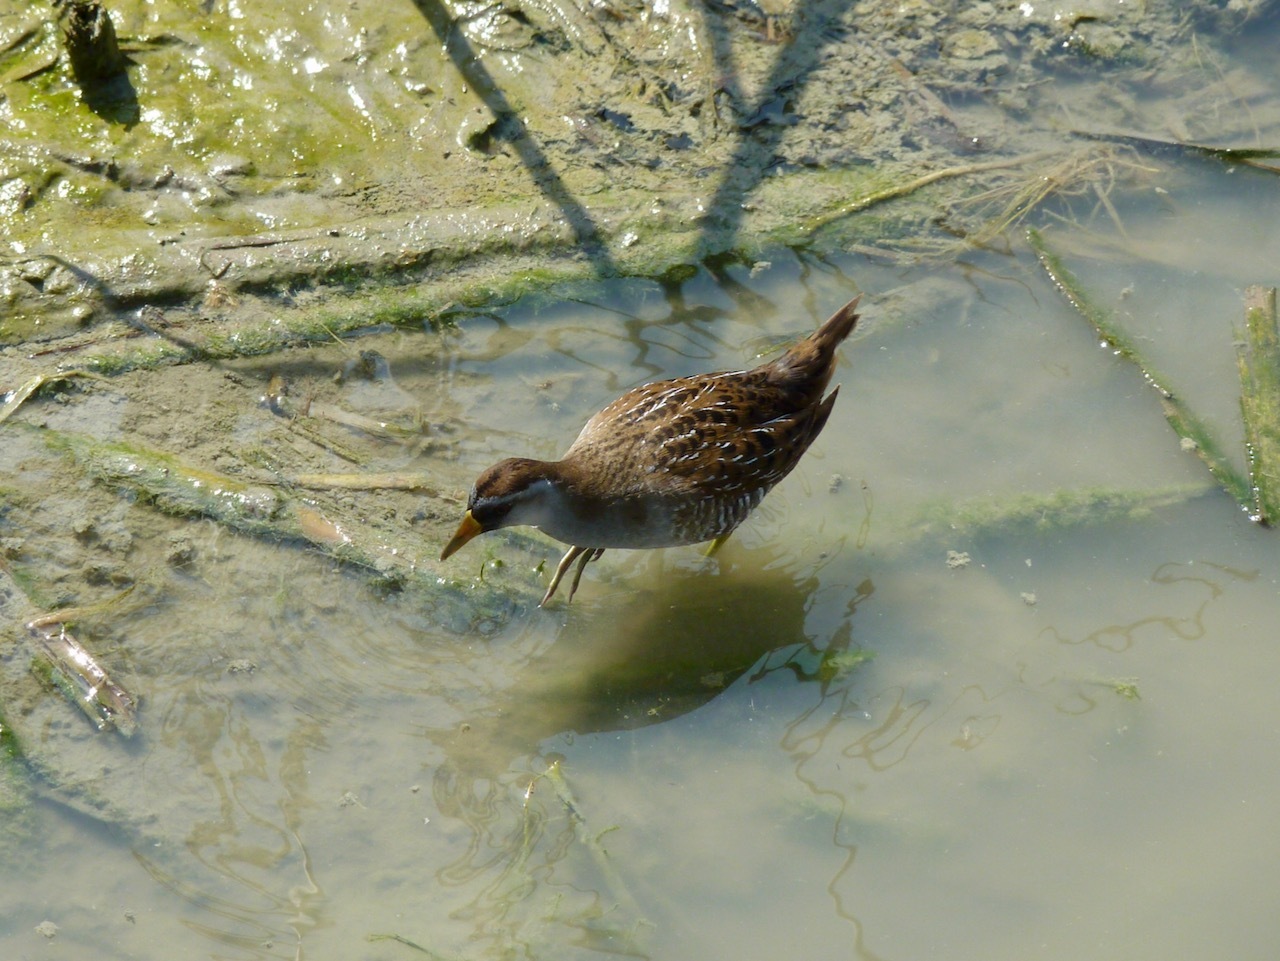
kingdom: Animalia
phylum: Chordata
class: Aves
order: Gruiformes
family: Rallidae
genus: Porzana
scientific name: Porzana carolina
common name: Sora
